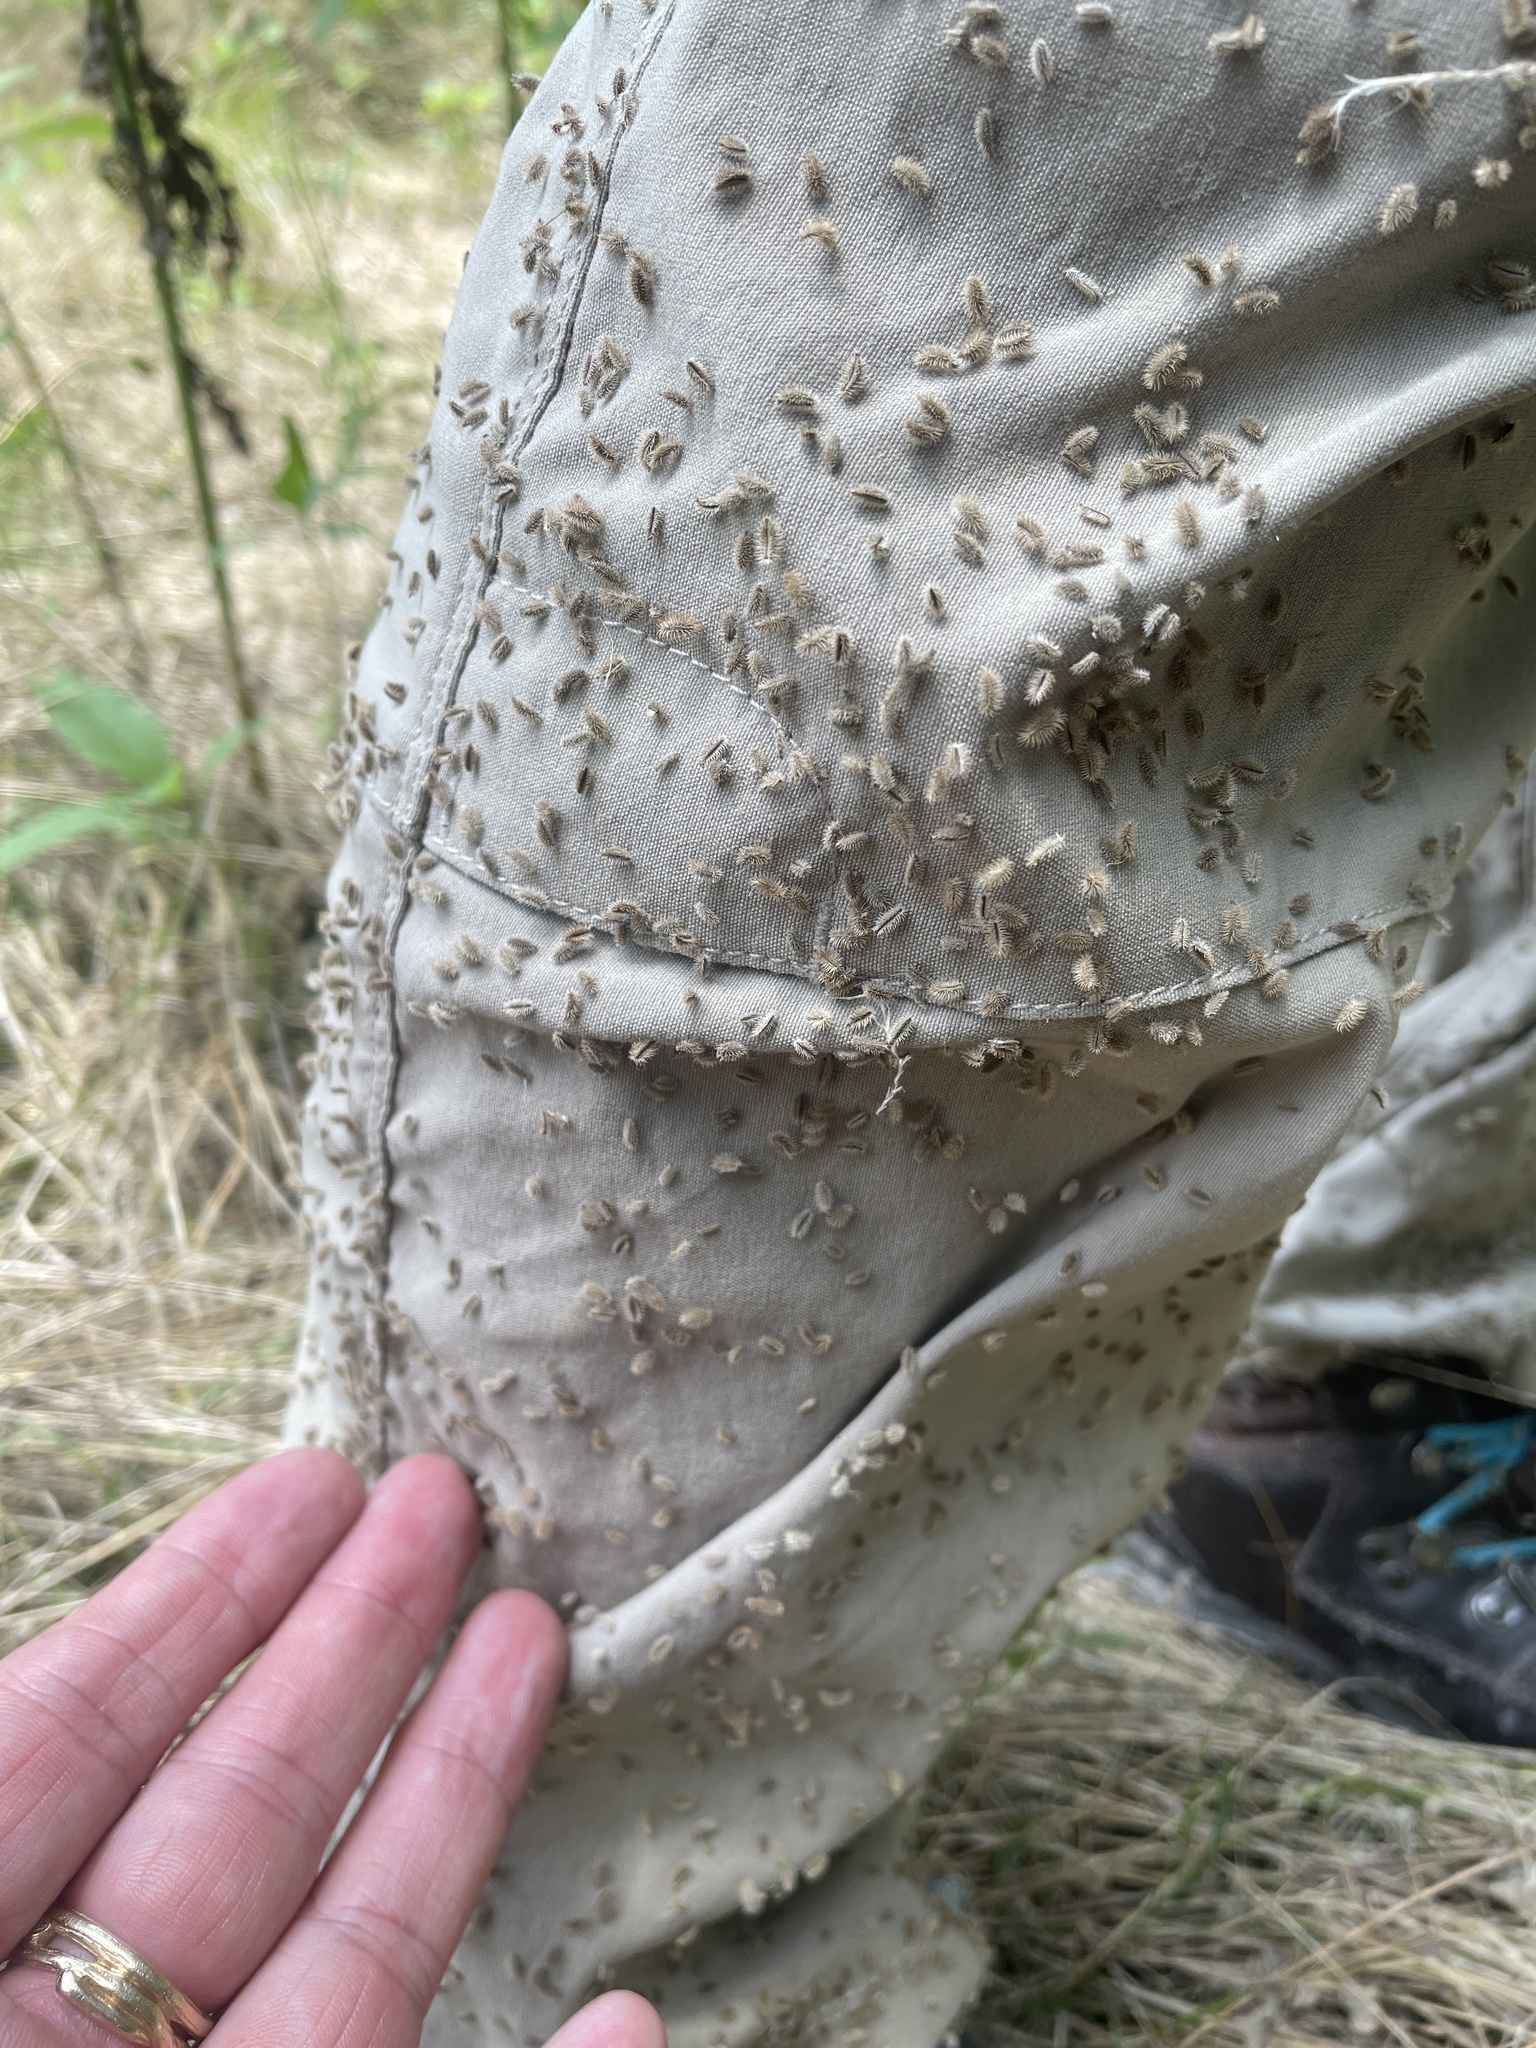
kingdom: Plantae
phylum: Tracheophyta
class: Magnoliopsida
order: Apiales
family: Apiaceae
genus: Torilis
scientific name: Torilis arvensis
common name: Spreading hedge-parsley
